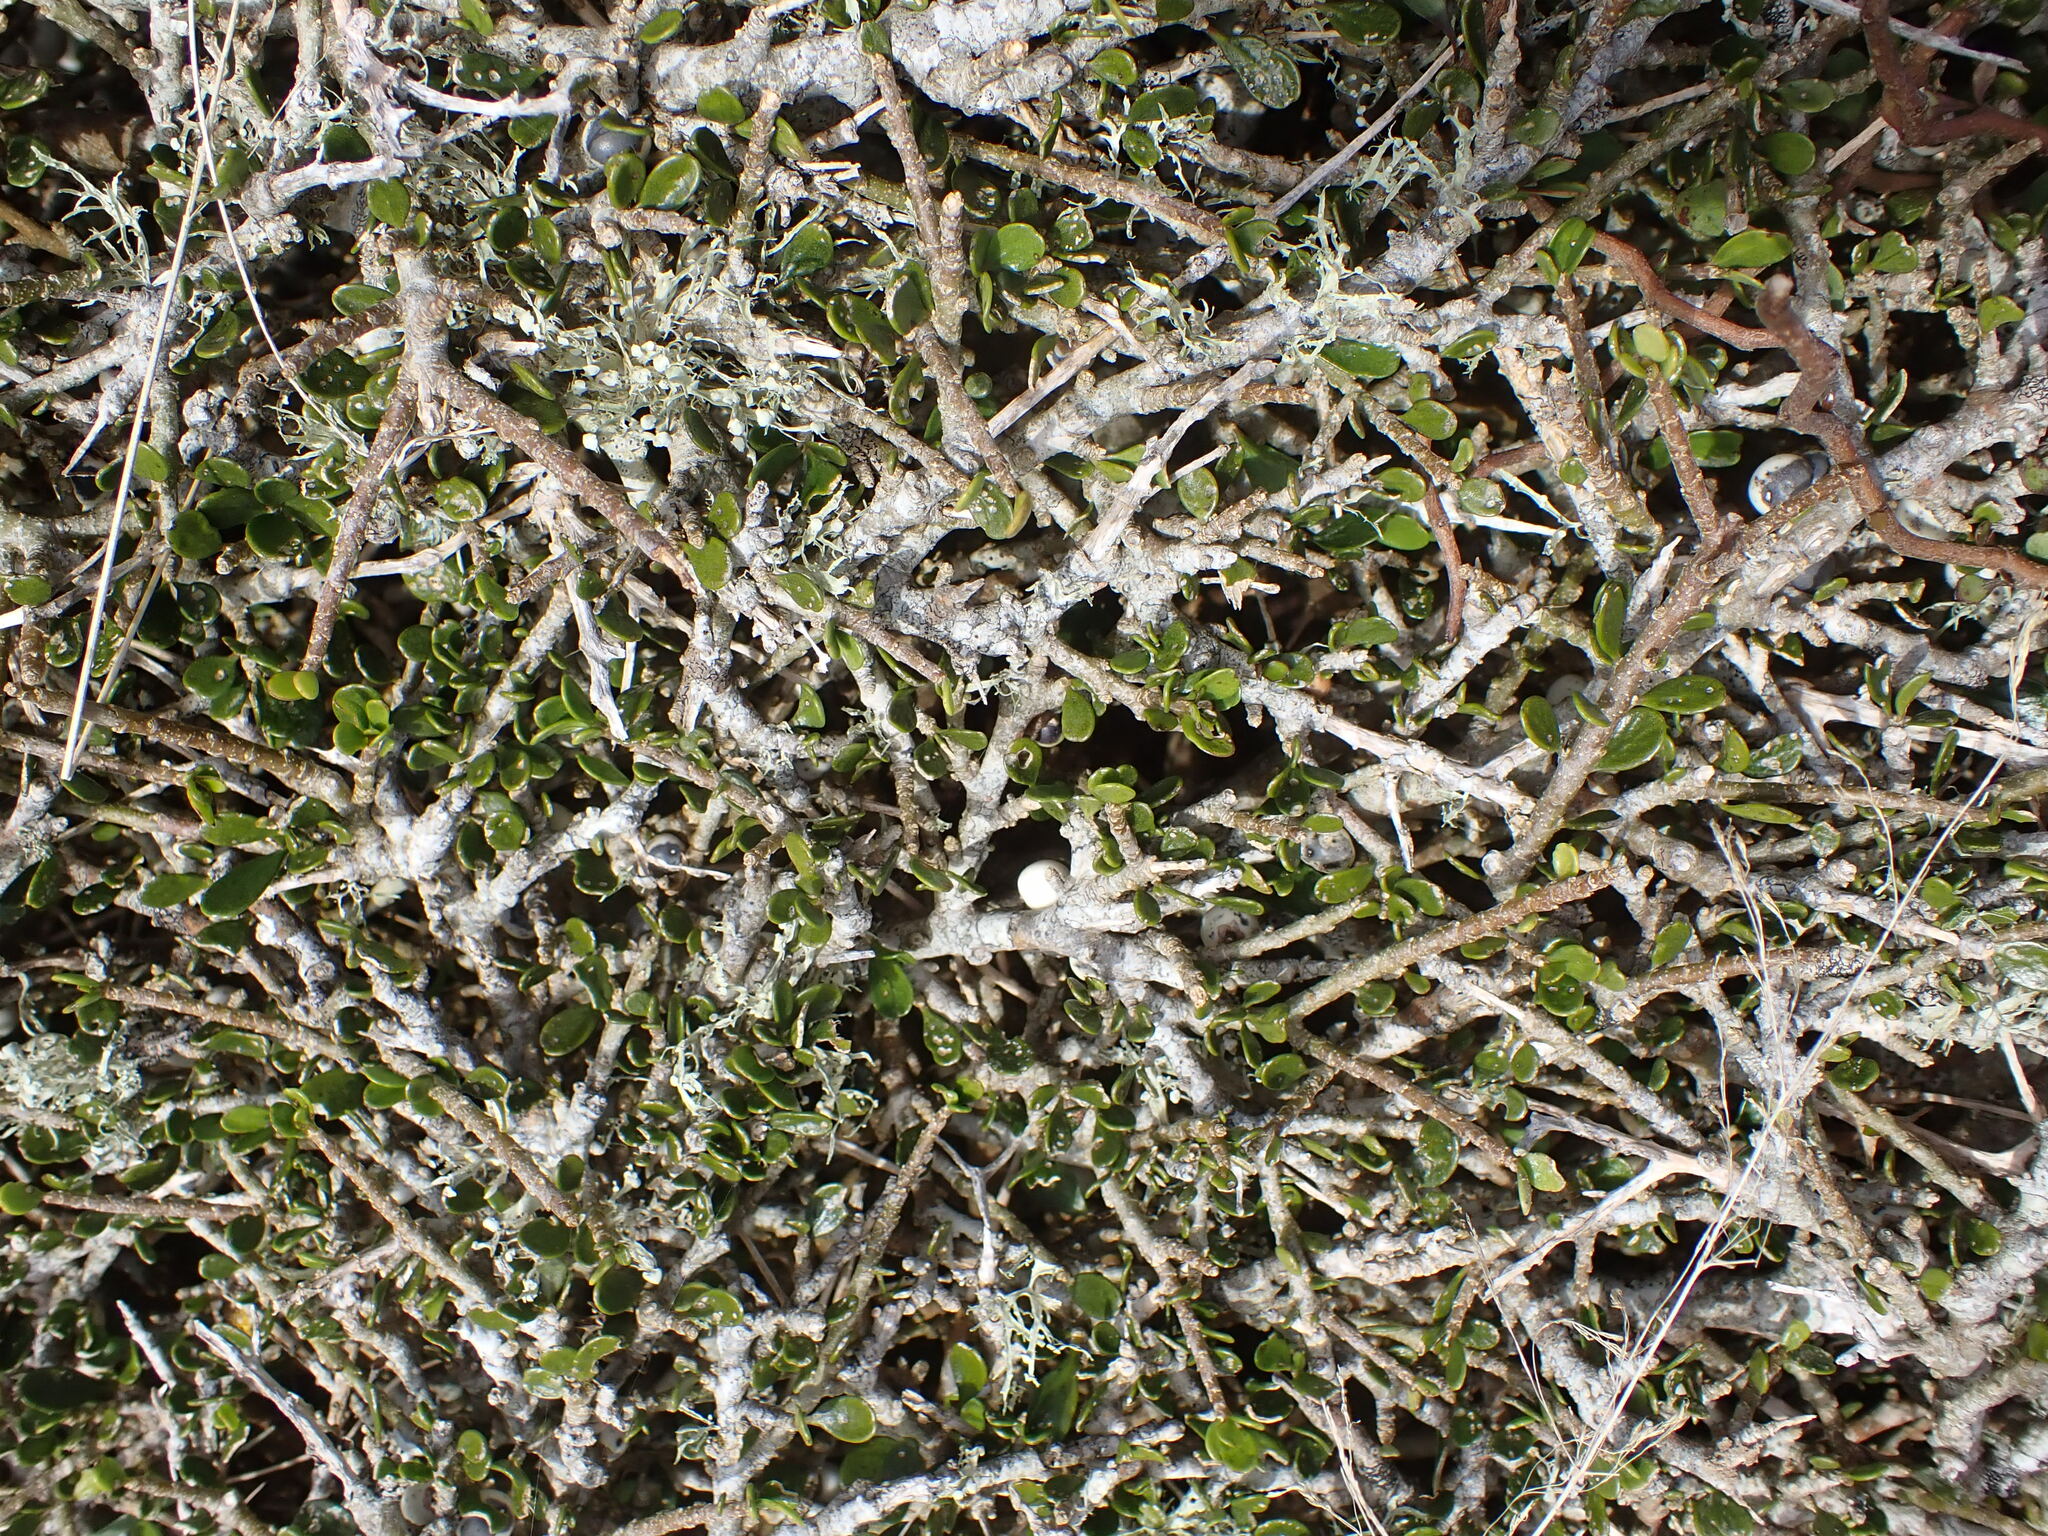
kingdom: Plantae
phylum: Tracheophyta
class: Magnoliopsida
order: Malpighiales
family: Violaceae
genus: Melicytus
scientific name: Melicytus crassifolius
